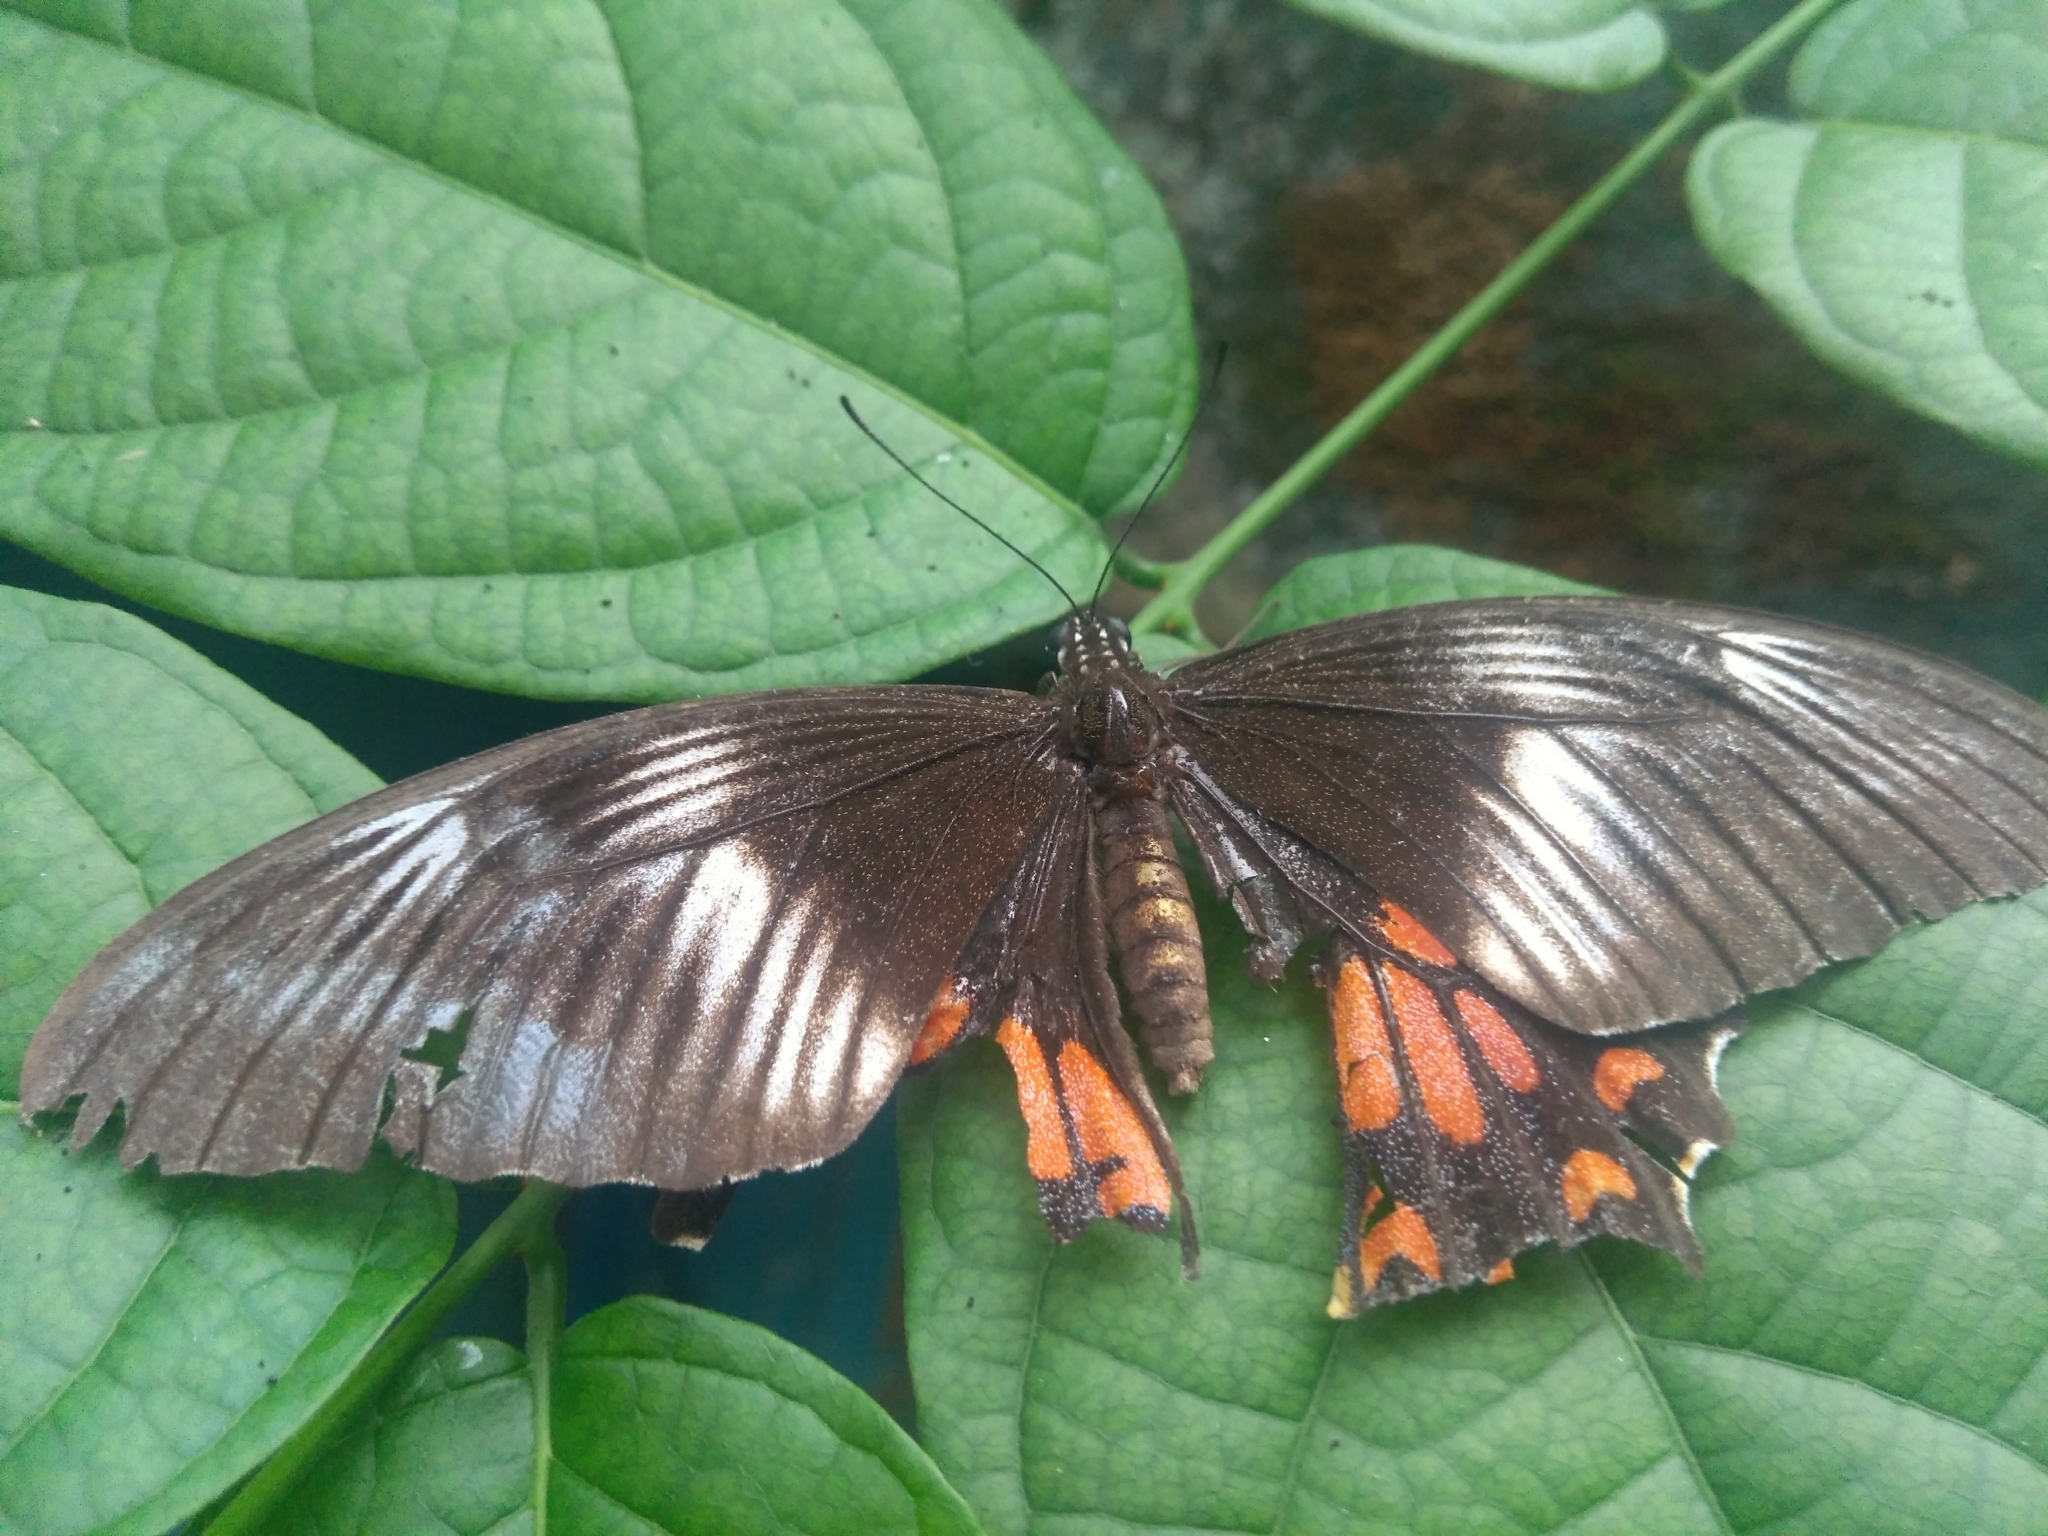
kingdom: Animalia
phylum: Arthropoda
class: Insecta
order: Lepidoptera
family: Papilionidae
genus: Papilio
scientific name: Papilio polytes
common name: Common mormon
